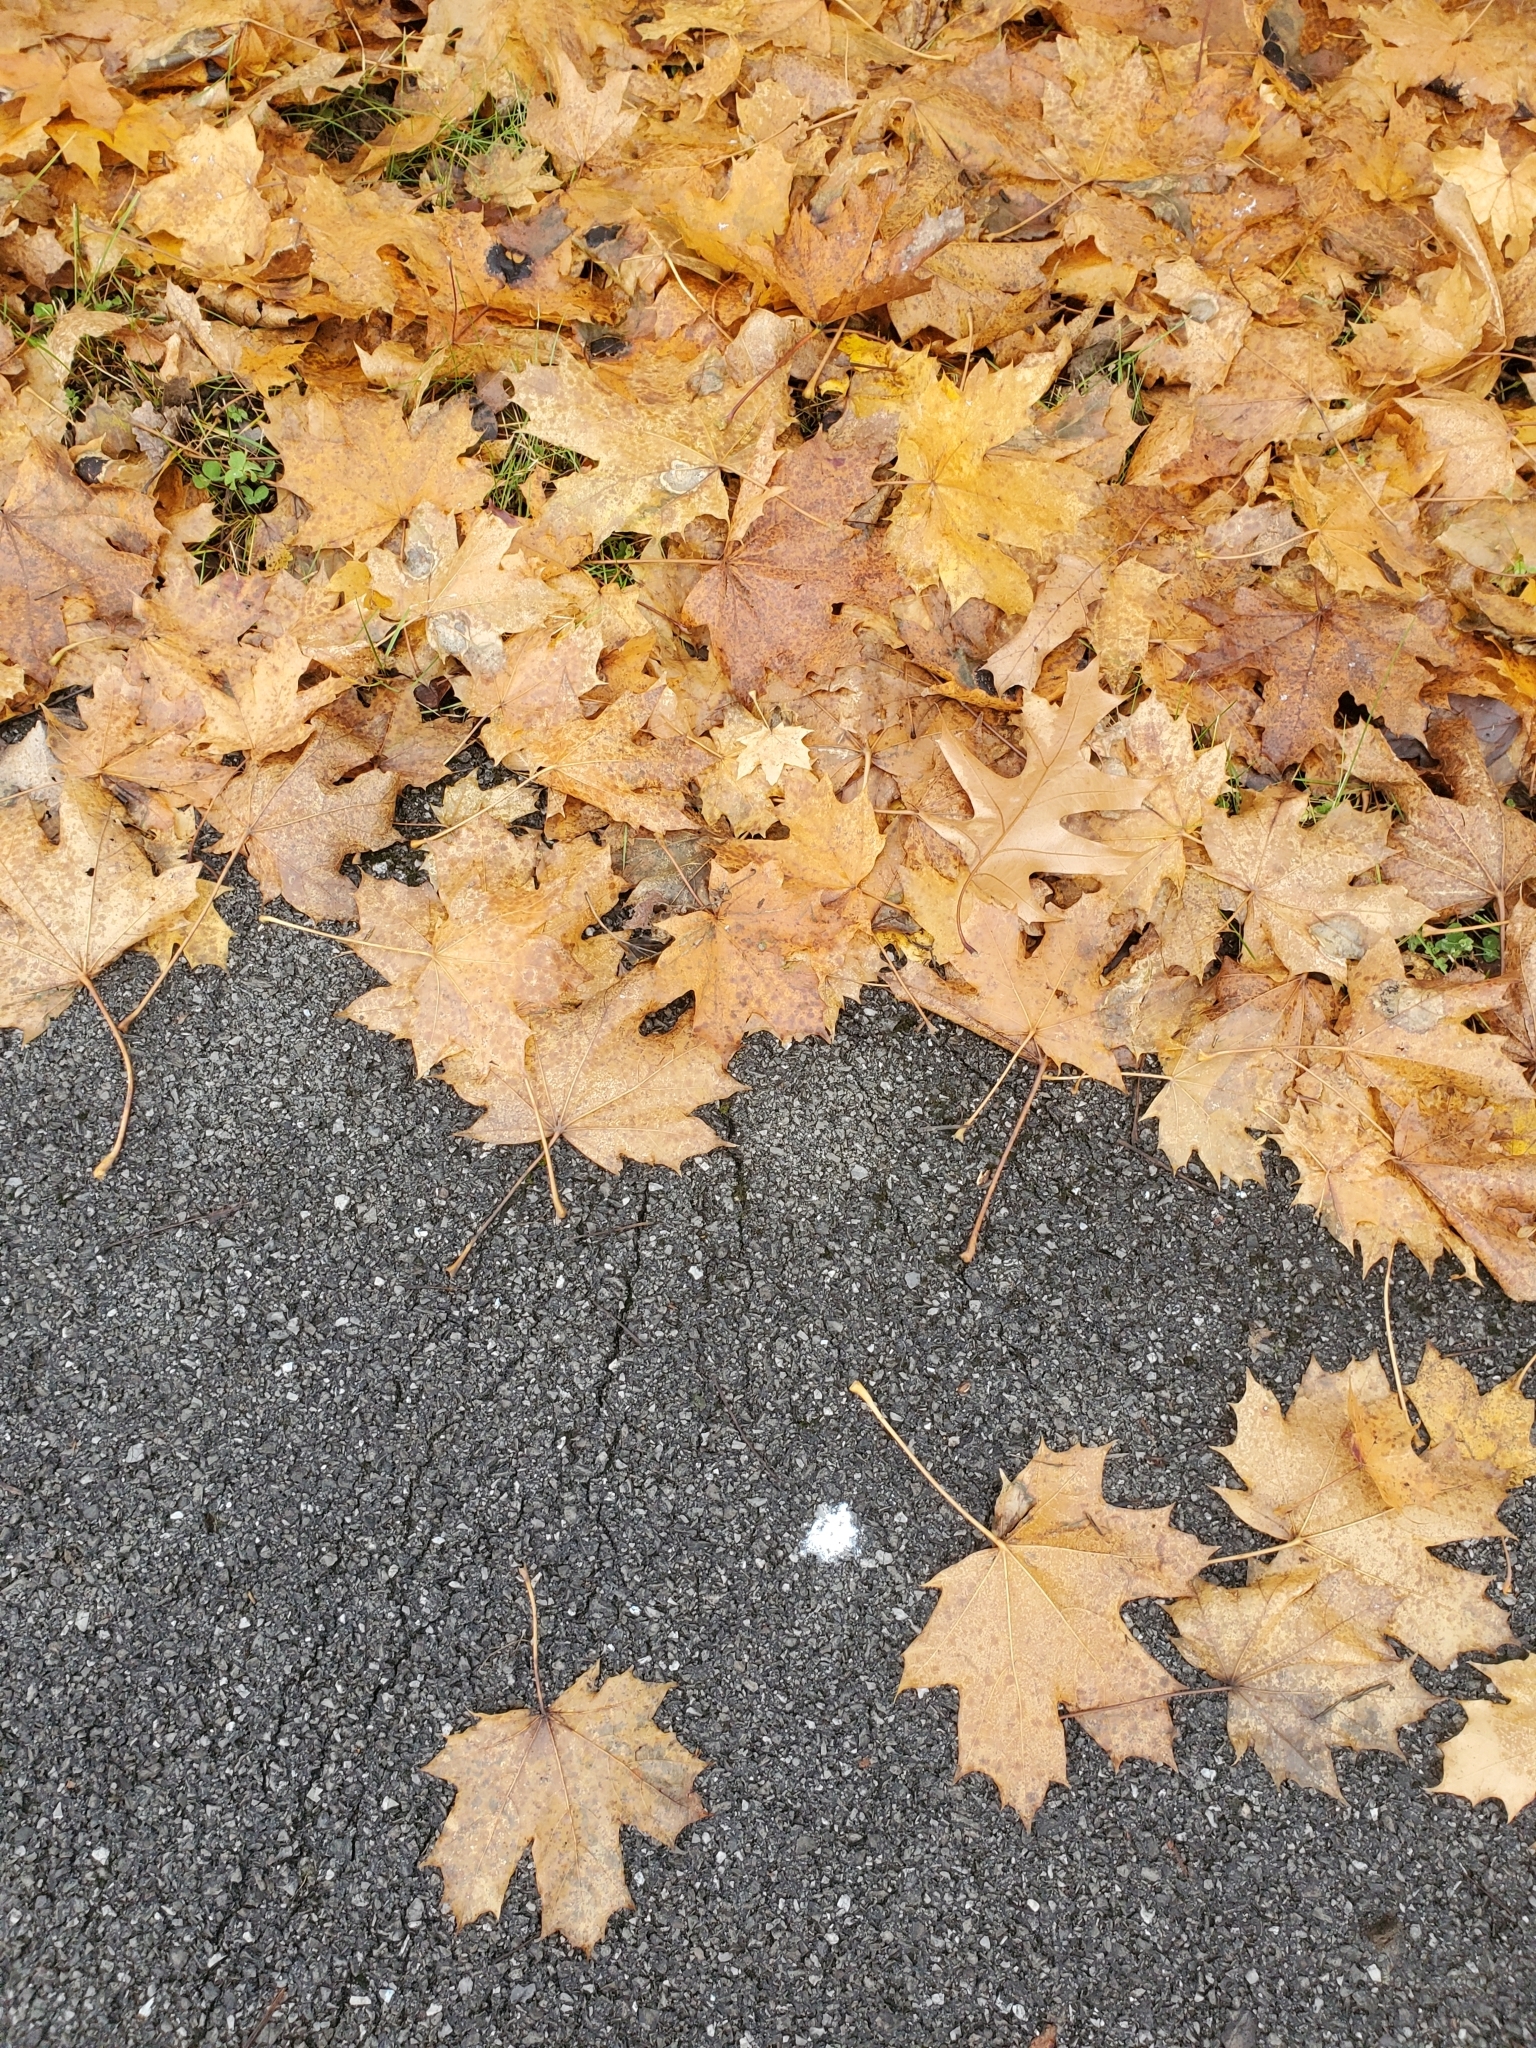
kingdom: Plantae
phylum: Tracheophyta
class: Magnoliopsida
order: Sapindales
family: Sapindaceae
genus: Acer
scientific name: Acer platanoides
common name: Norway maple
